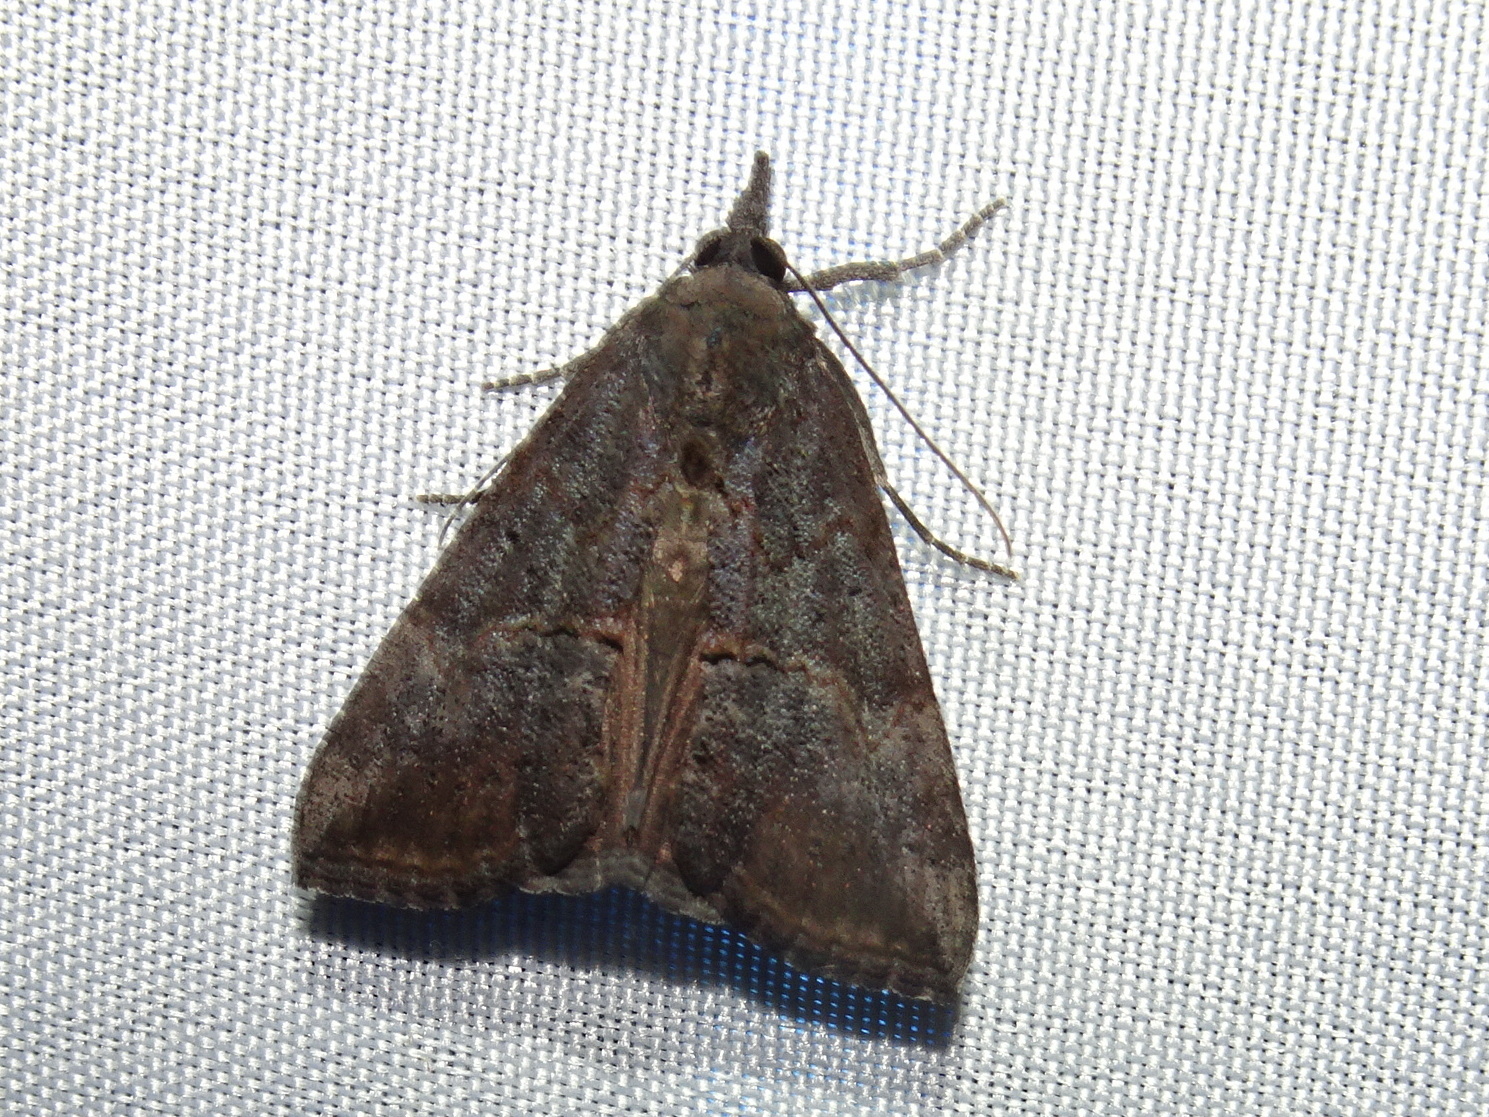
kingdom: Animalia
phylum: Arthropoda
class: Insecta
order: Lepidoptera
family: Erebidae
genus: Hypena
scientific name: Hypena scabra
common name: Green cloverworm
